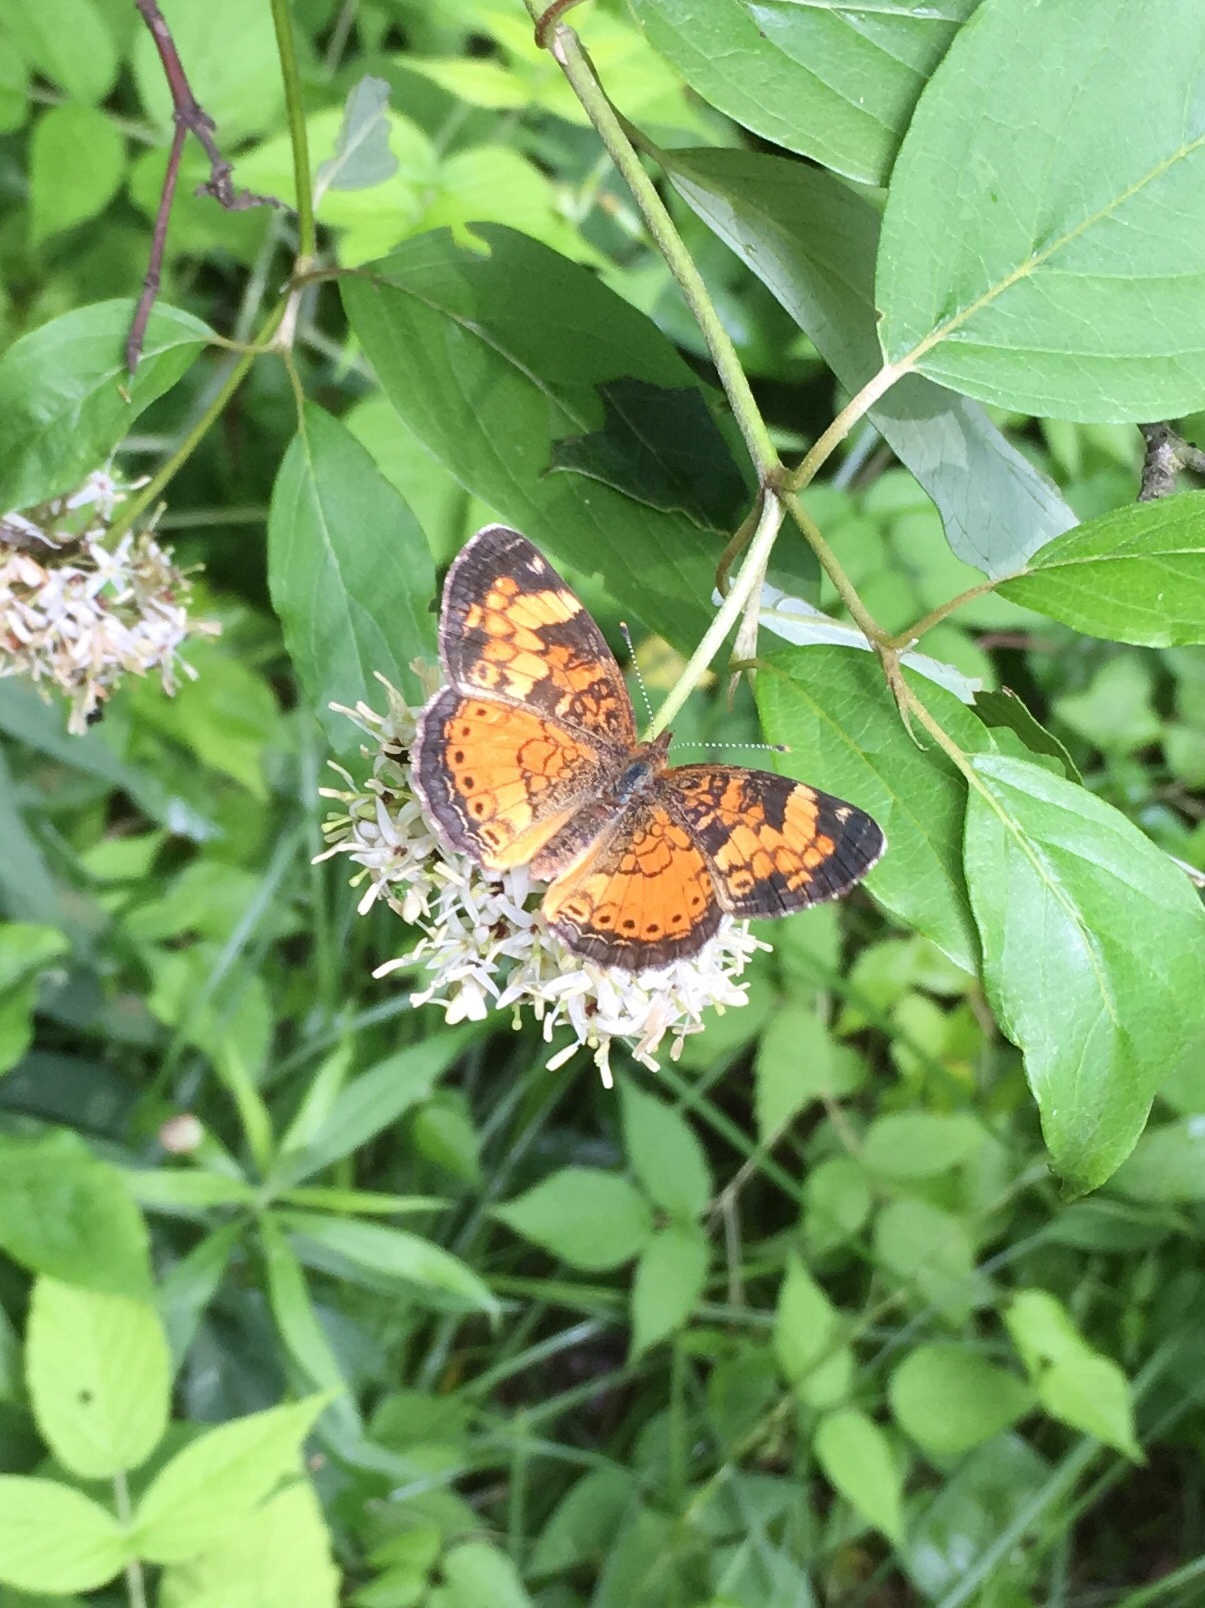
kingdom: Animalia
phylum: Arthropoda
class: Insecta
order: Lepidoptera
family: Nymphalidae
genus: Phyciodes
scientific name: Phyciodes tharos
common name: Pearl crescent
